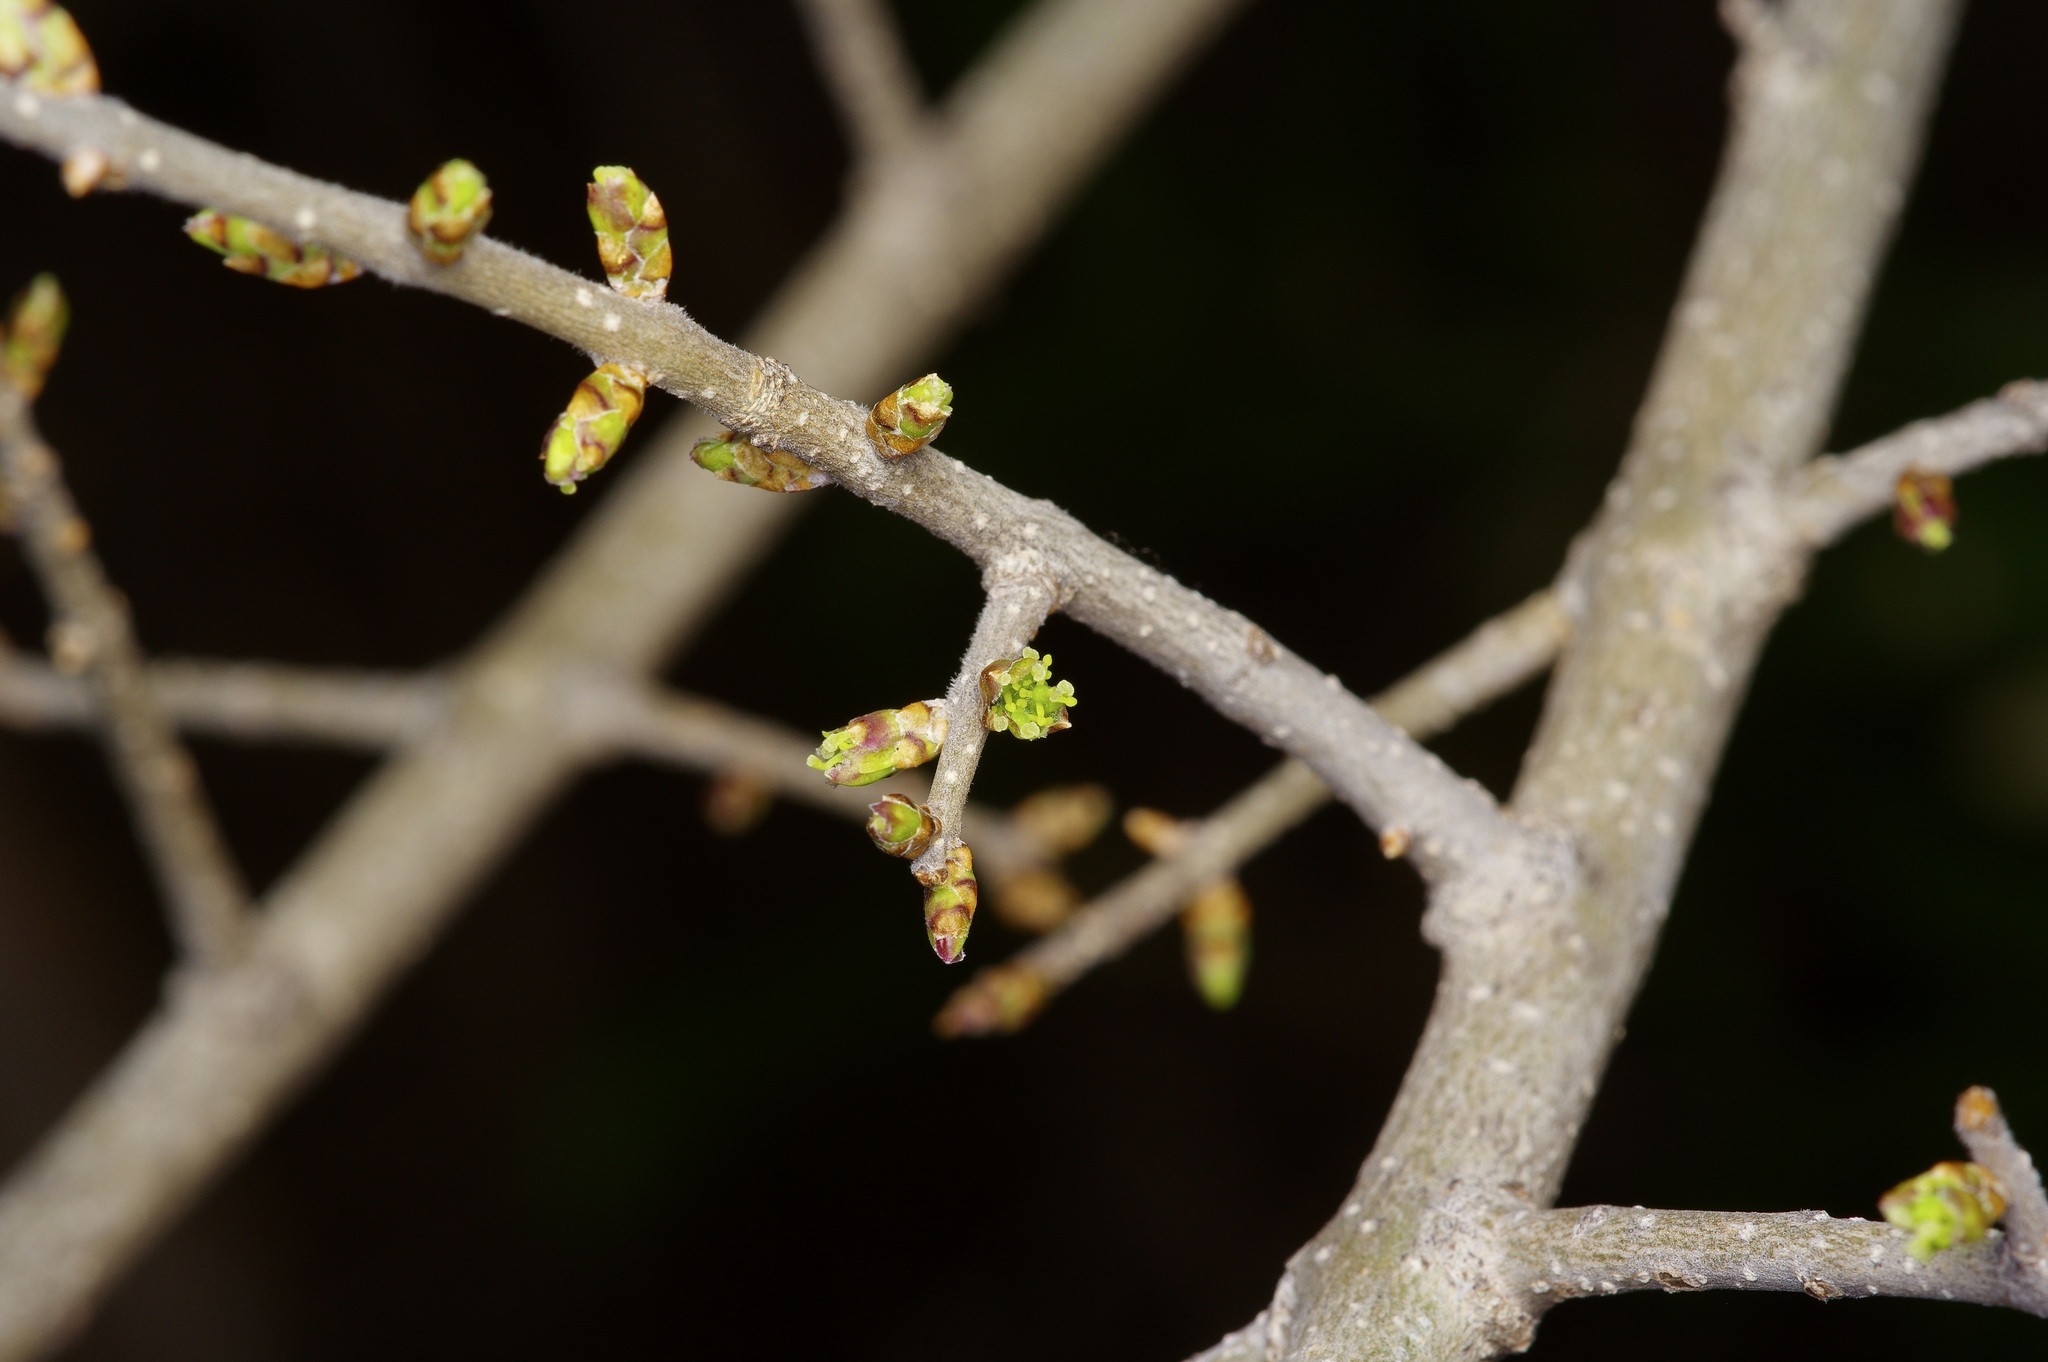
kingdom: Plantae
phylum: Tracheophyta
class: Magnoliopsida
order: Lamiales
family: Oleaceae
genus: Forestiera
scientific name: Forestiera pubescens
